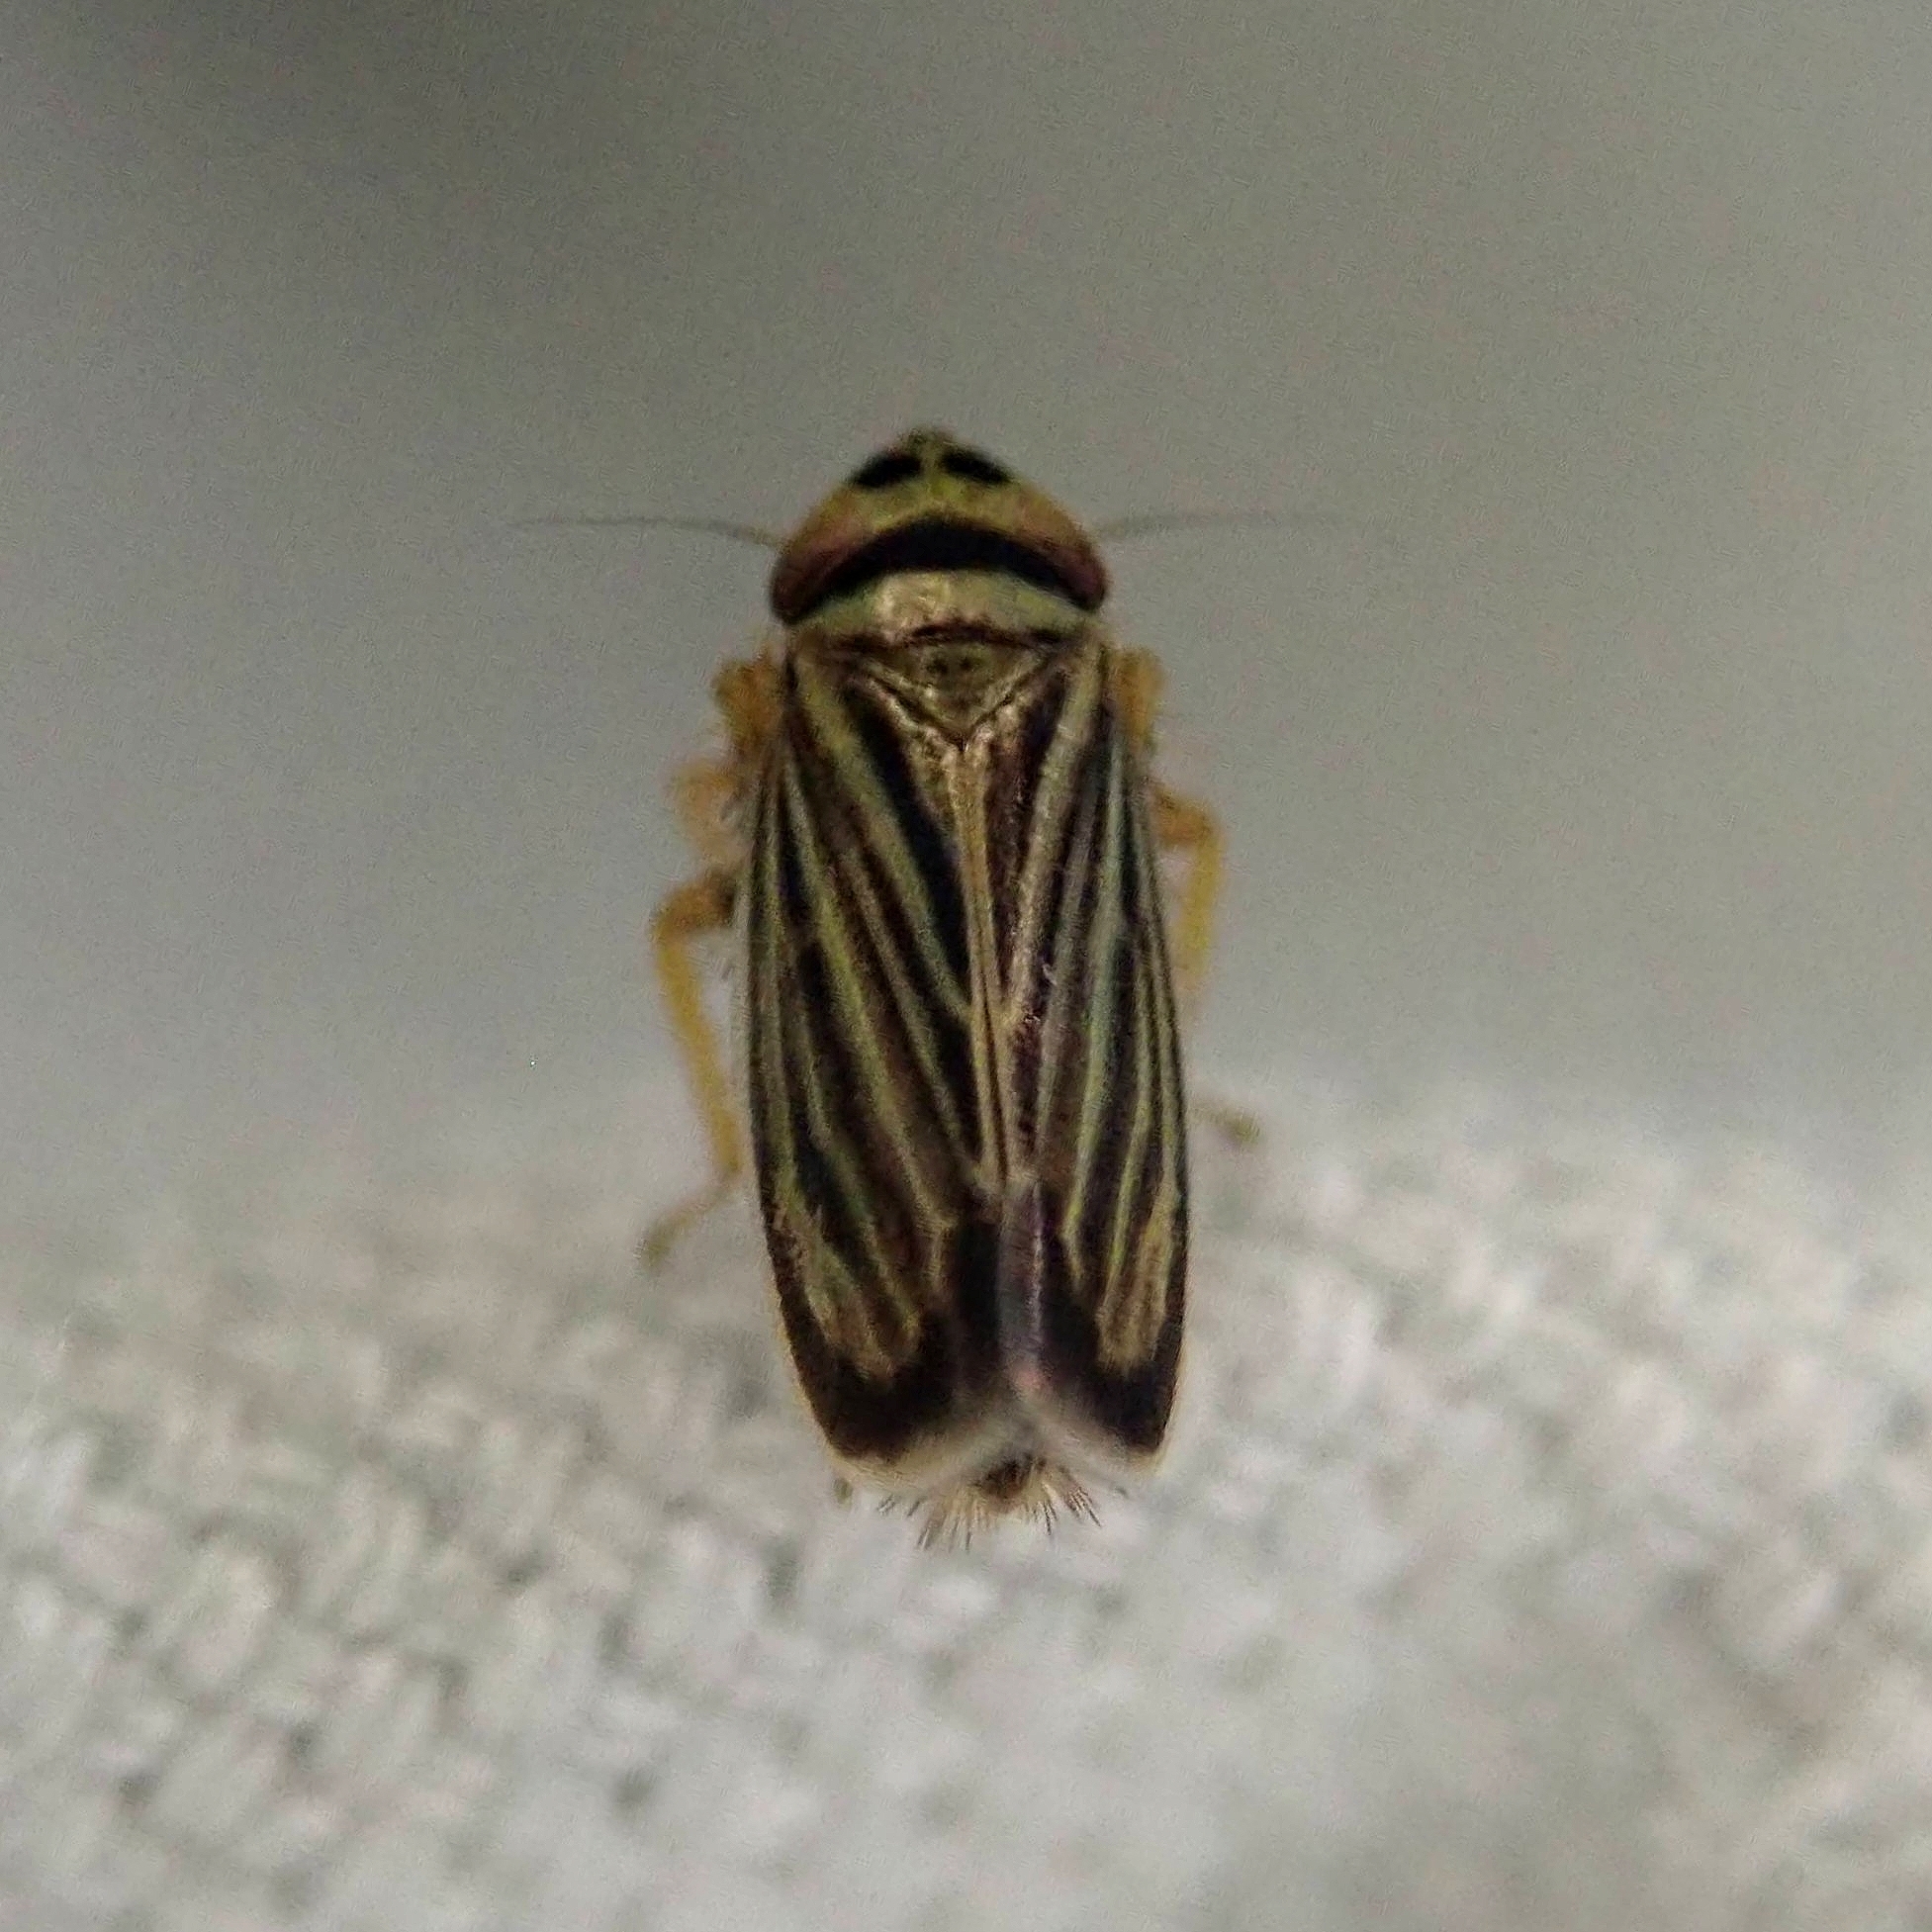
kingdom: Animalia
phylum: Arthropoda
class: Insecta
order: Hemiptera
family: Cicadellidae
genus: Amblysellus
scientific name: Amblysellus curtisii
